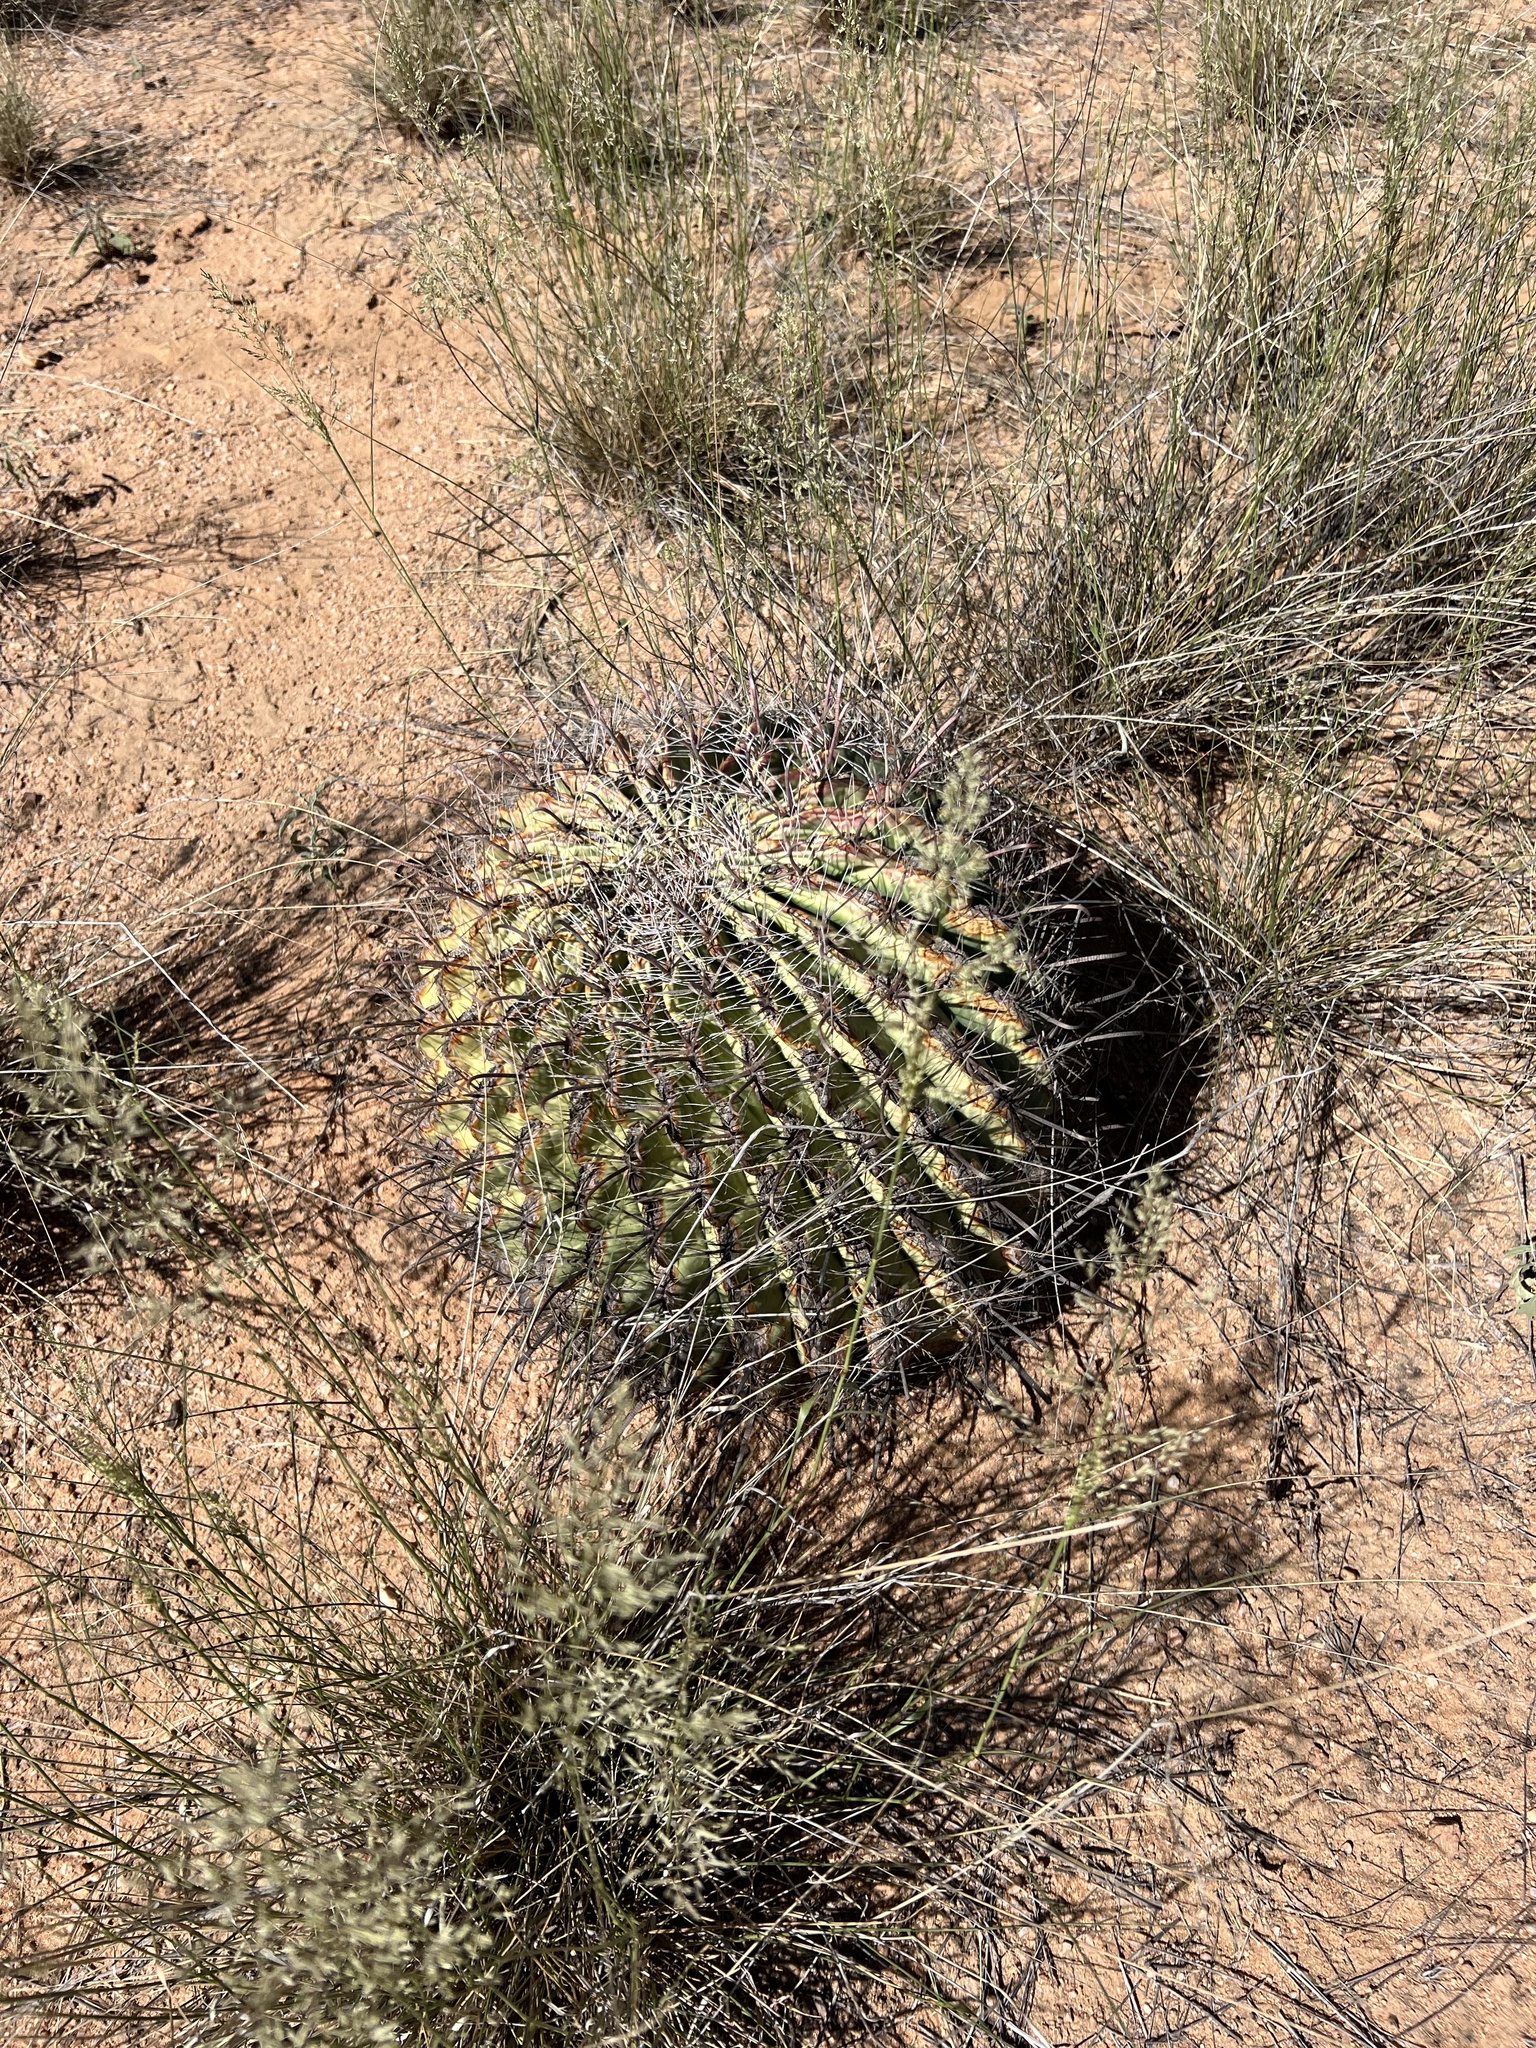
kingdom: Plantae
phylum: Tracheophyta
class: Magnoliopsida
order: Caryophyllales
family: Cactaceae
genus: Ferocactus
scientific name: Ferocactus wislizeni
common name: Candy barrel cactus
